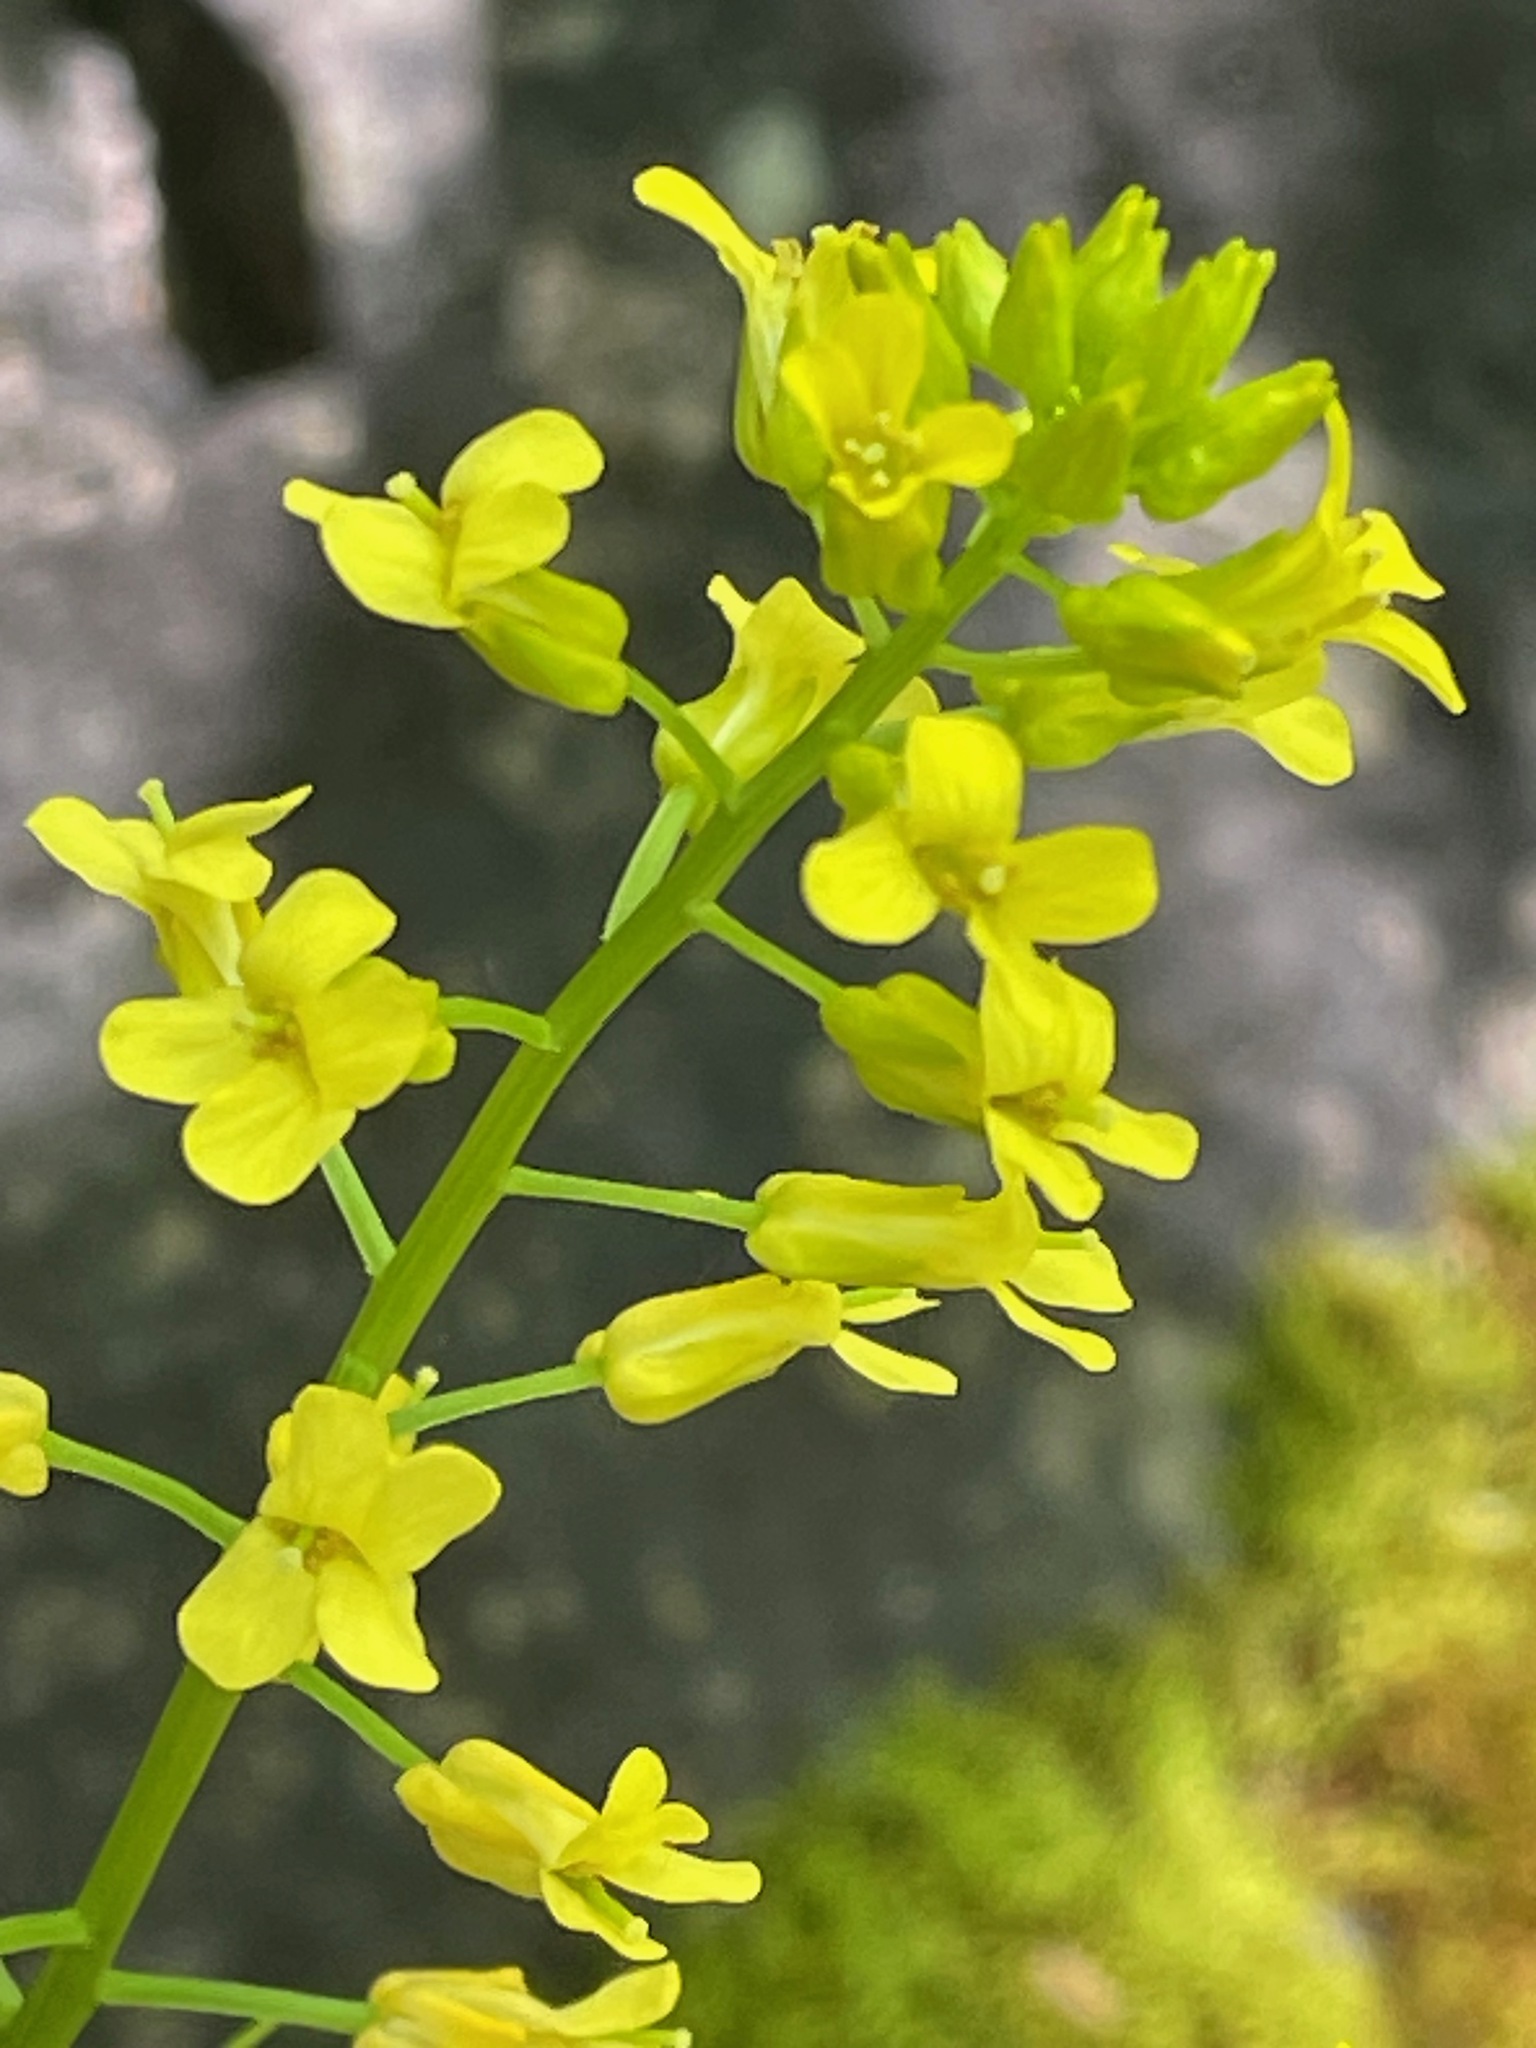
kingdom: Plantae
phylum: Tracheophyta
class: Magnoliopsida
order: Brassicales
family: Brassicaceae
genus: Barbarea
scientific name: Barbarea vulgaris
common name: Cressy-greens
